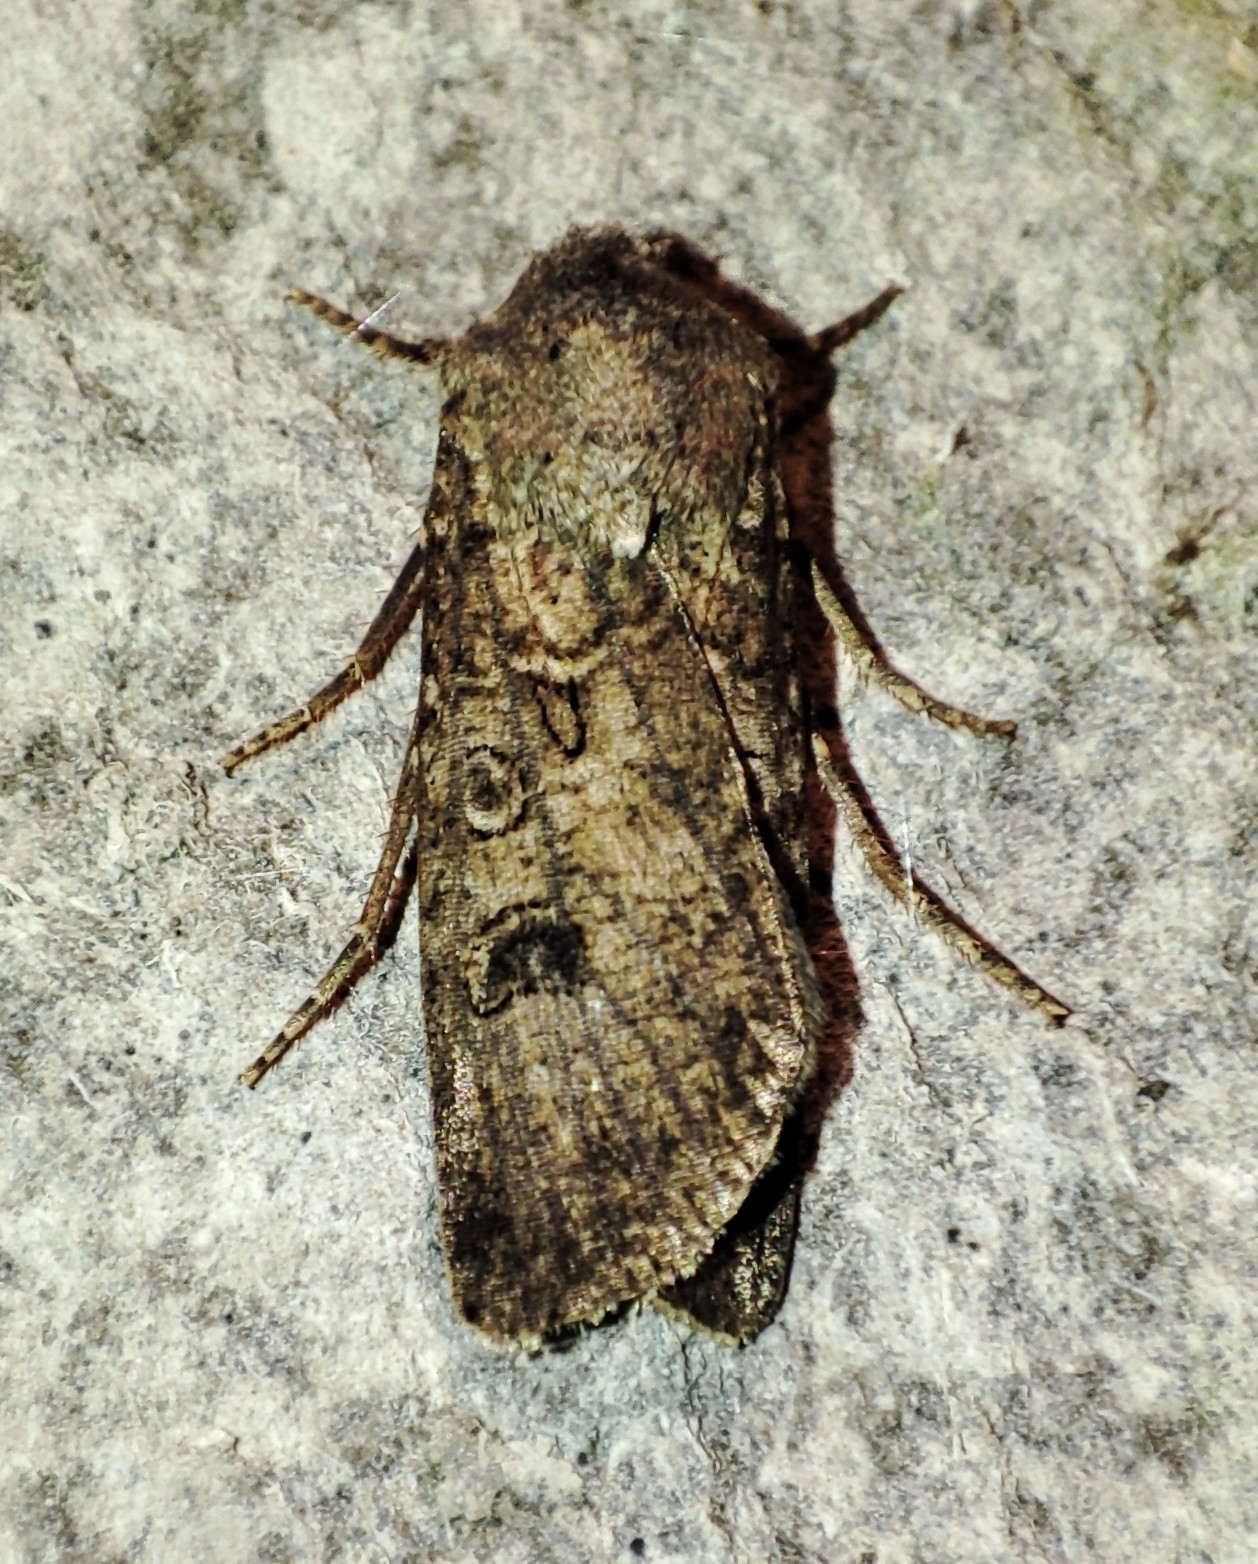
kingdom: Animalia
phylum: Arthropoda
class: Insecta
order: Lepidoptera
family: Noctuidae
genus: Agrotis
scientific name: Agrotis segetum
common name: Turnip moth
